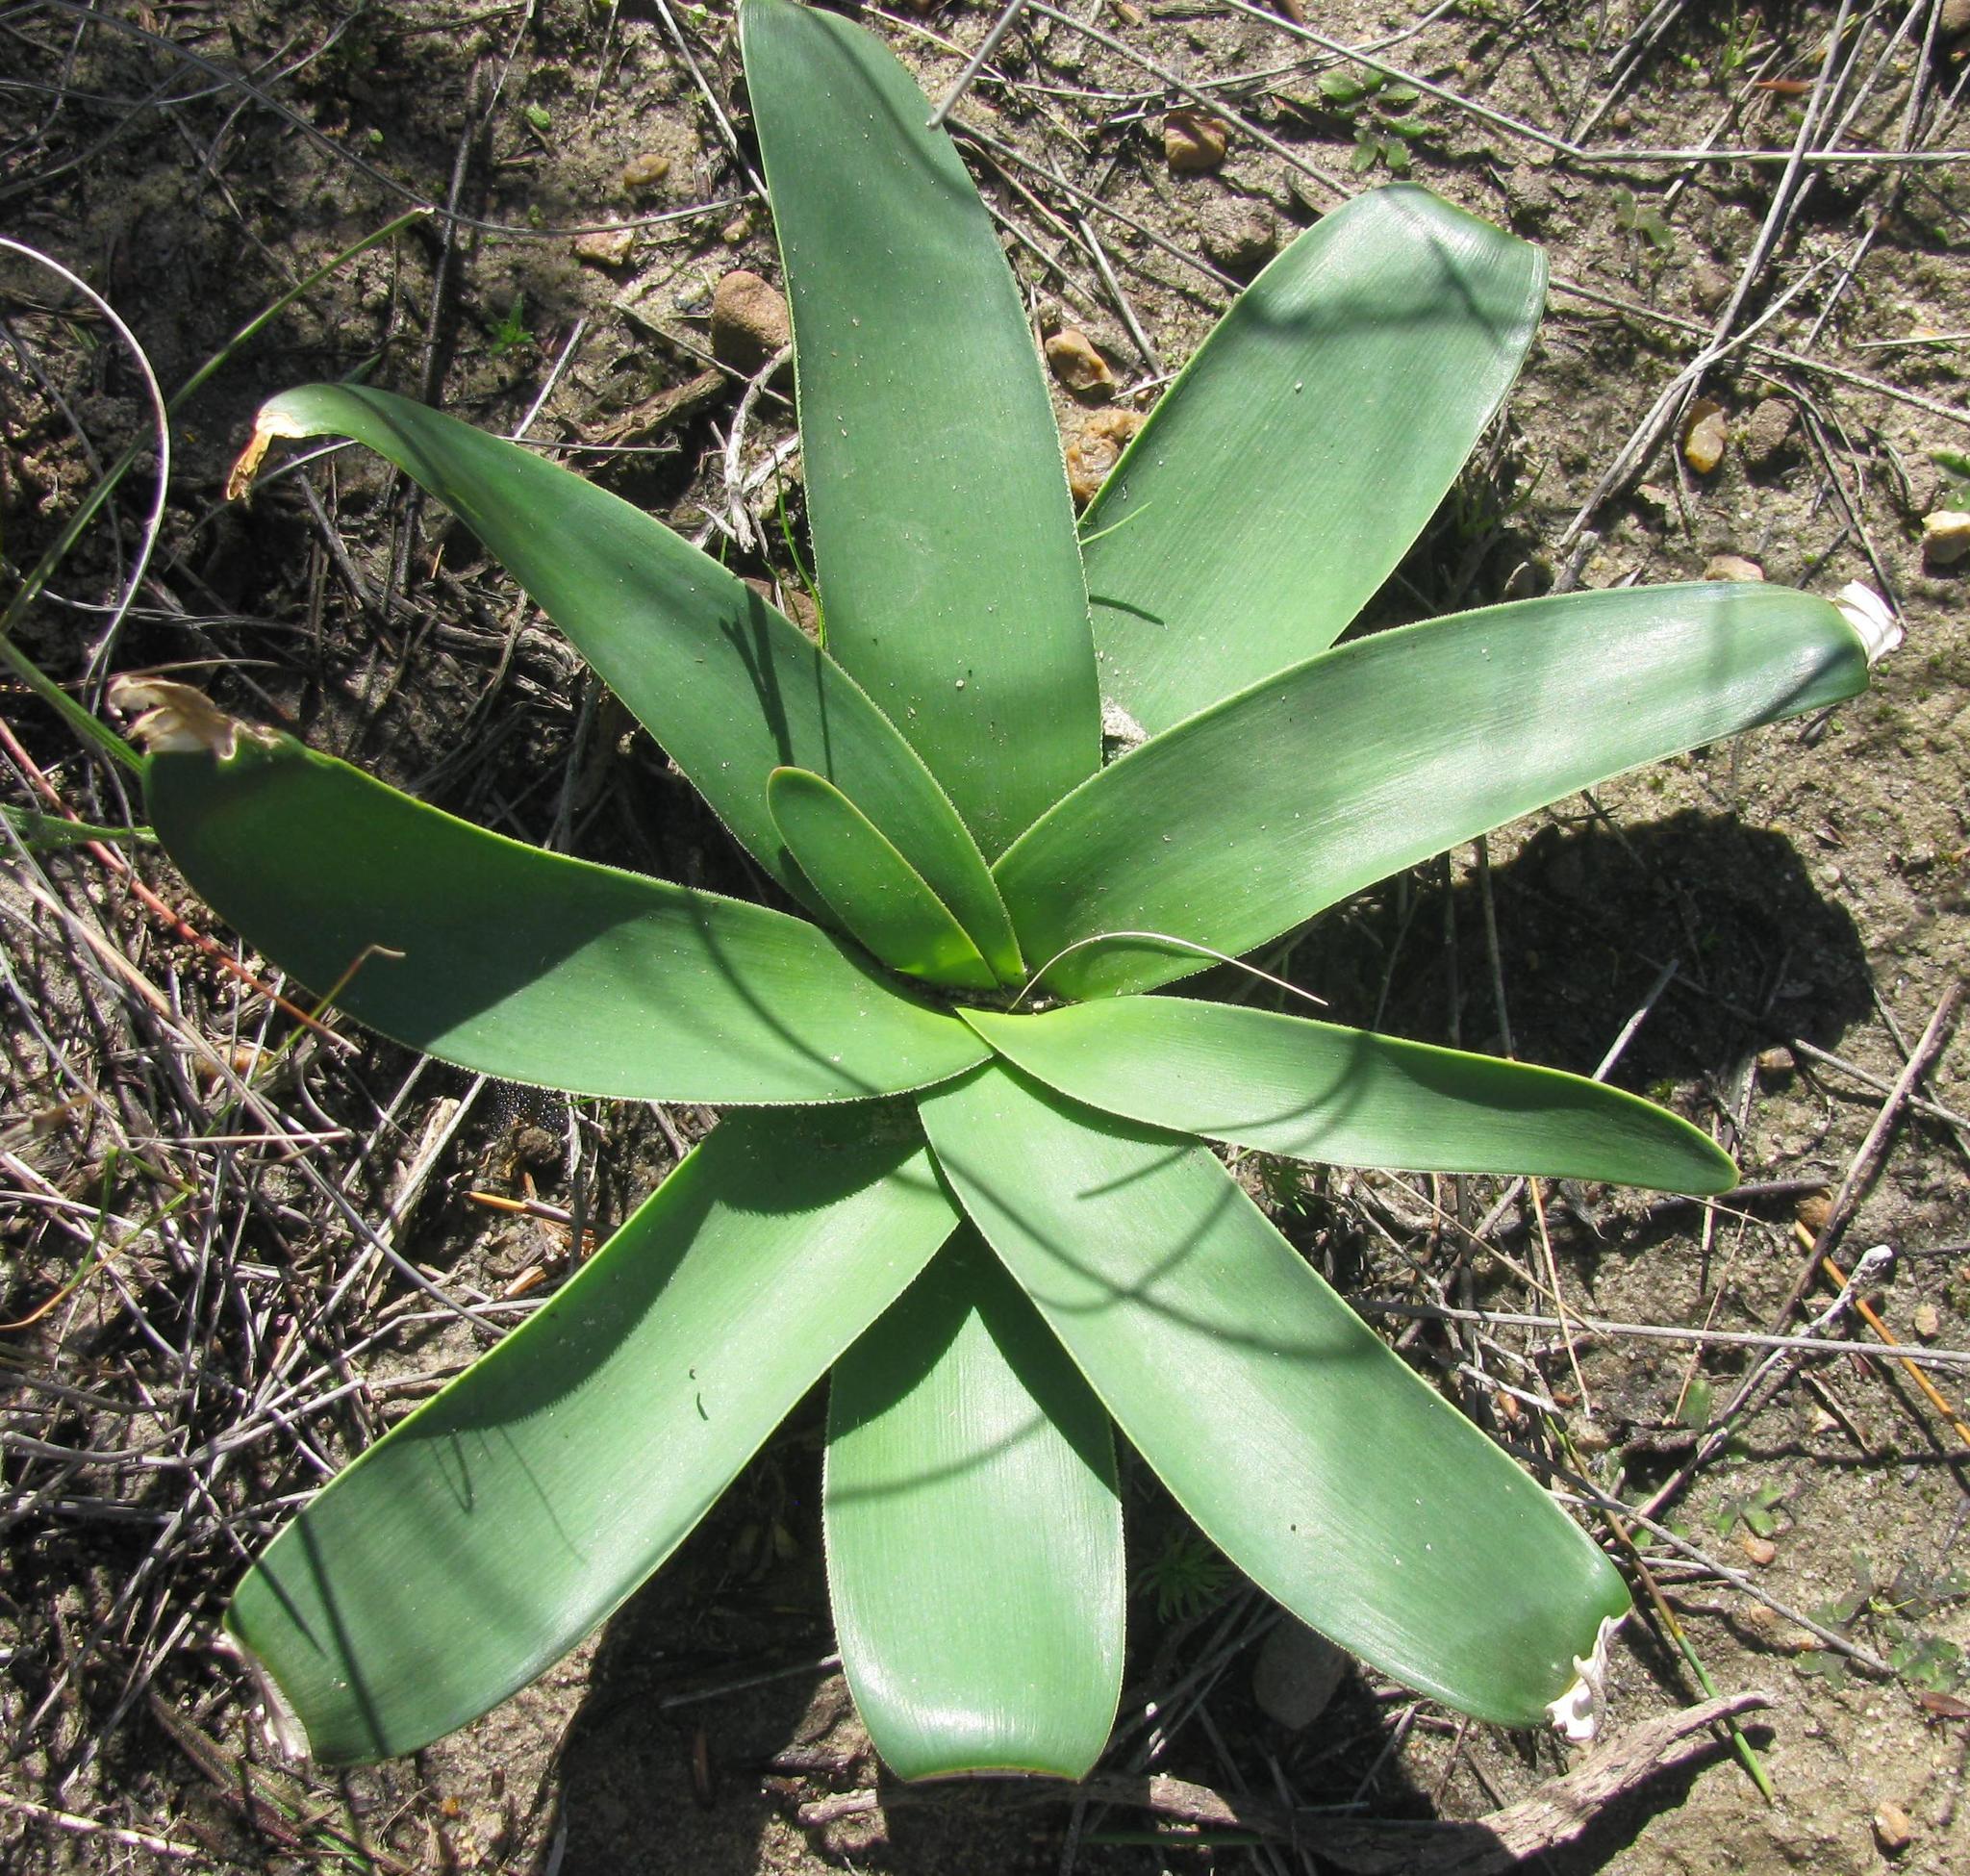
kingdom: Plantae
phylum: Tracheophyta
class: Liliopsida
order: Asparagales
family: Amaryllidaceae
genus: Ammocharis
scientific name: Ammocharis longifolia
